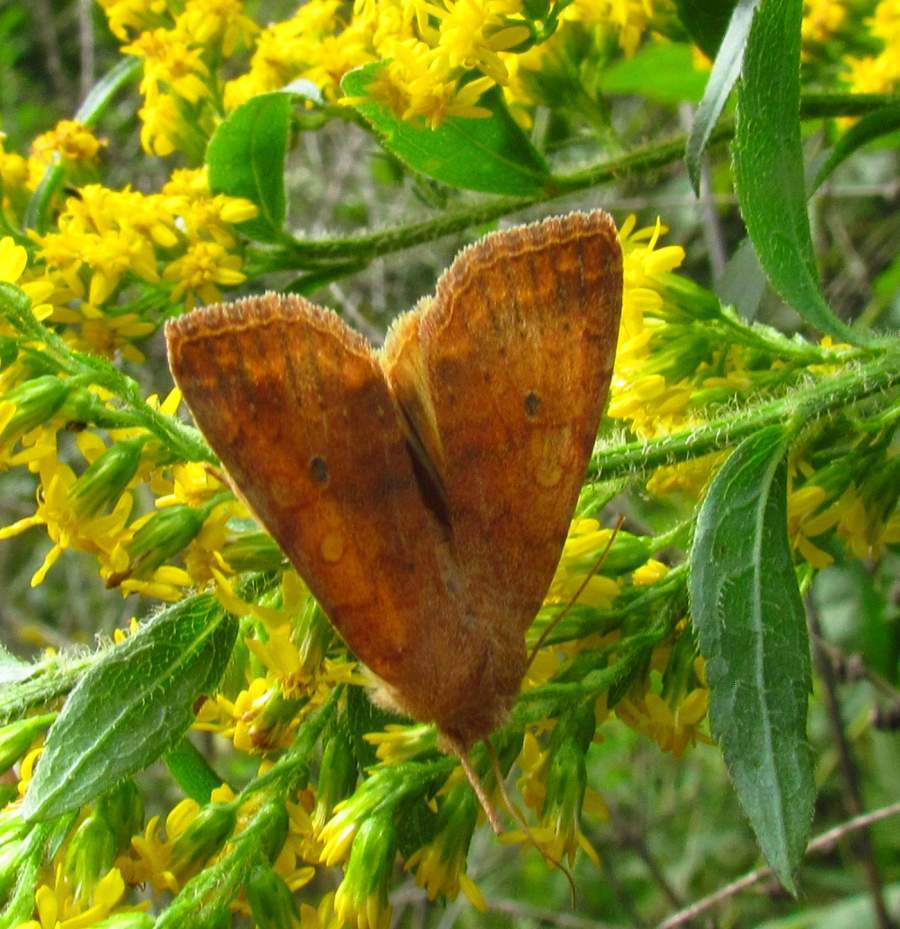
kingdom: Animalia
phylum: Arthropoda
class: Insecta
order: Lepidoptera
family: Noctuidae
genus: Agrochola
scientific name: Agrochola bicolorago
